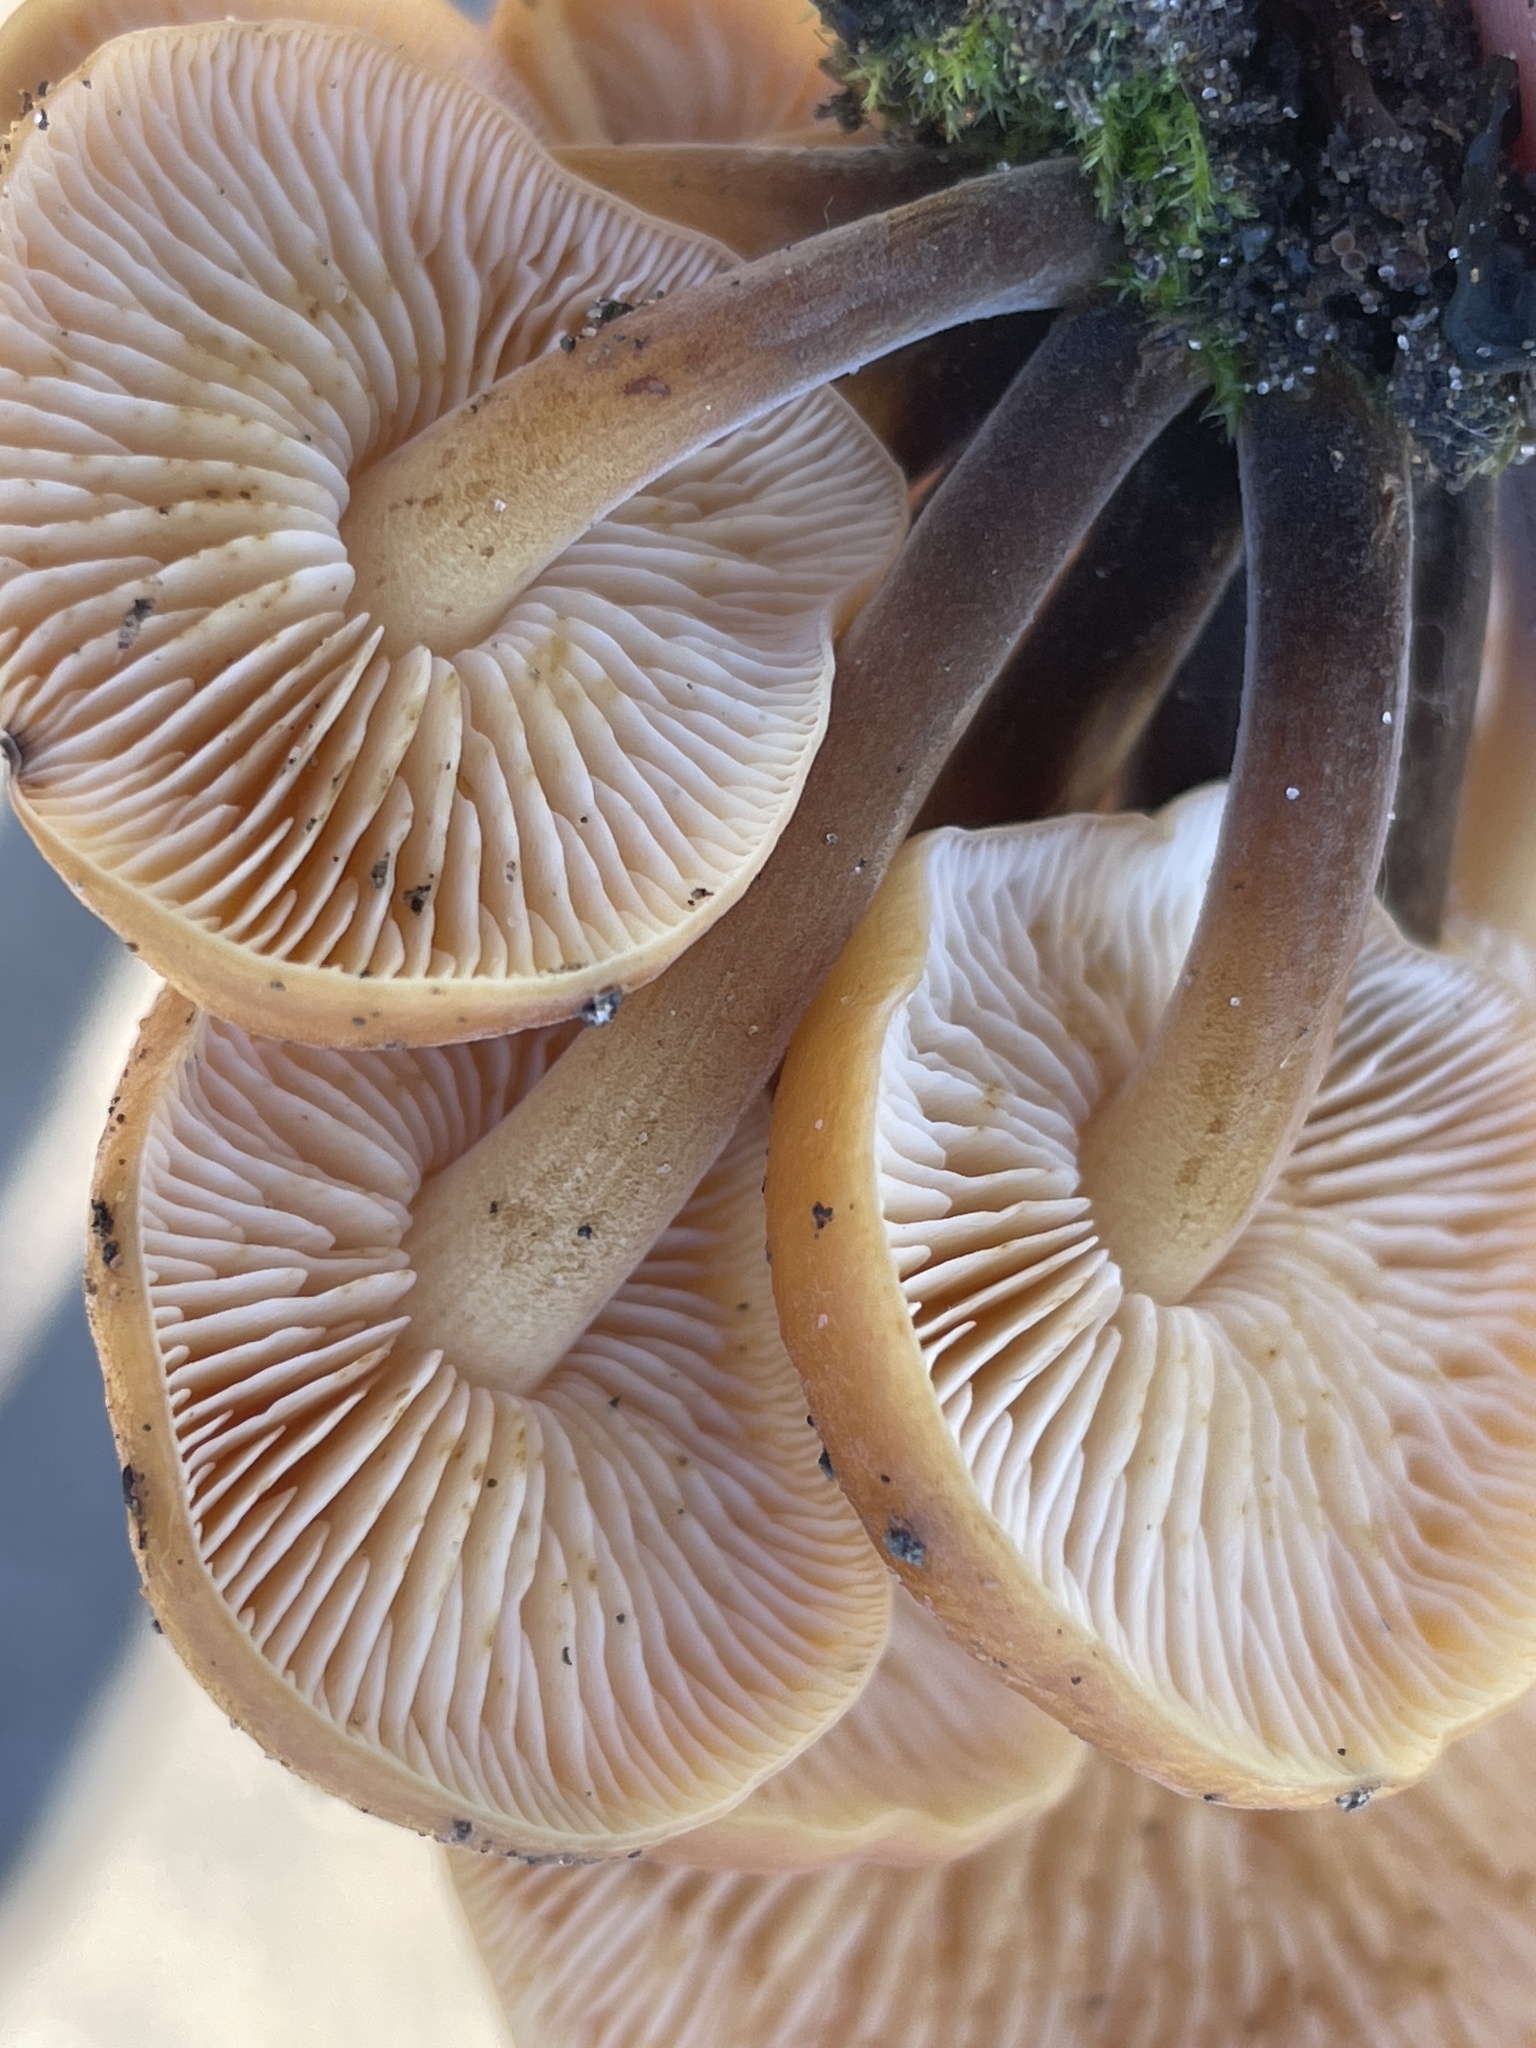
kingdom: Fungi
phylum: Basidiomycota
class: Agaricomycetes
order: Agaricales
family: Physalacriaceae
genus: Flammulina
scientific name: Flammulina velutipes
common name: Velvet shank
